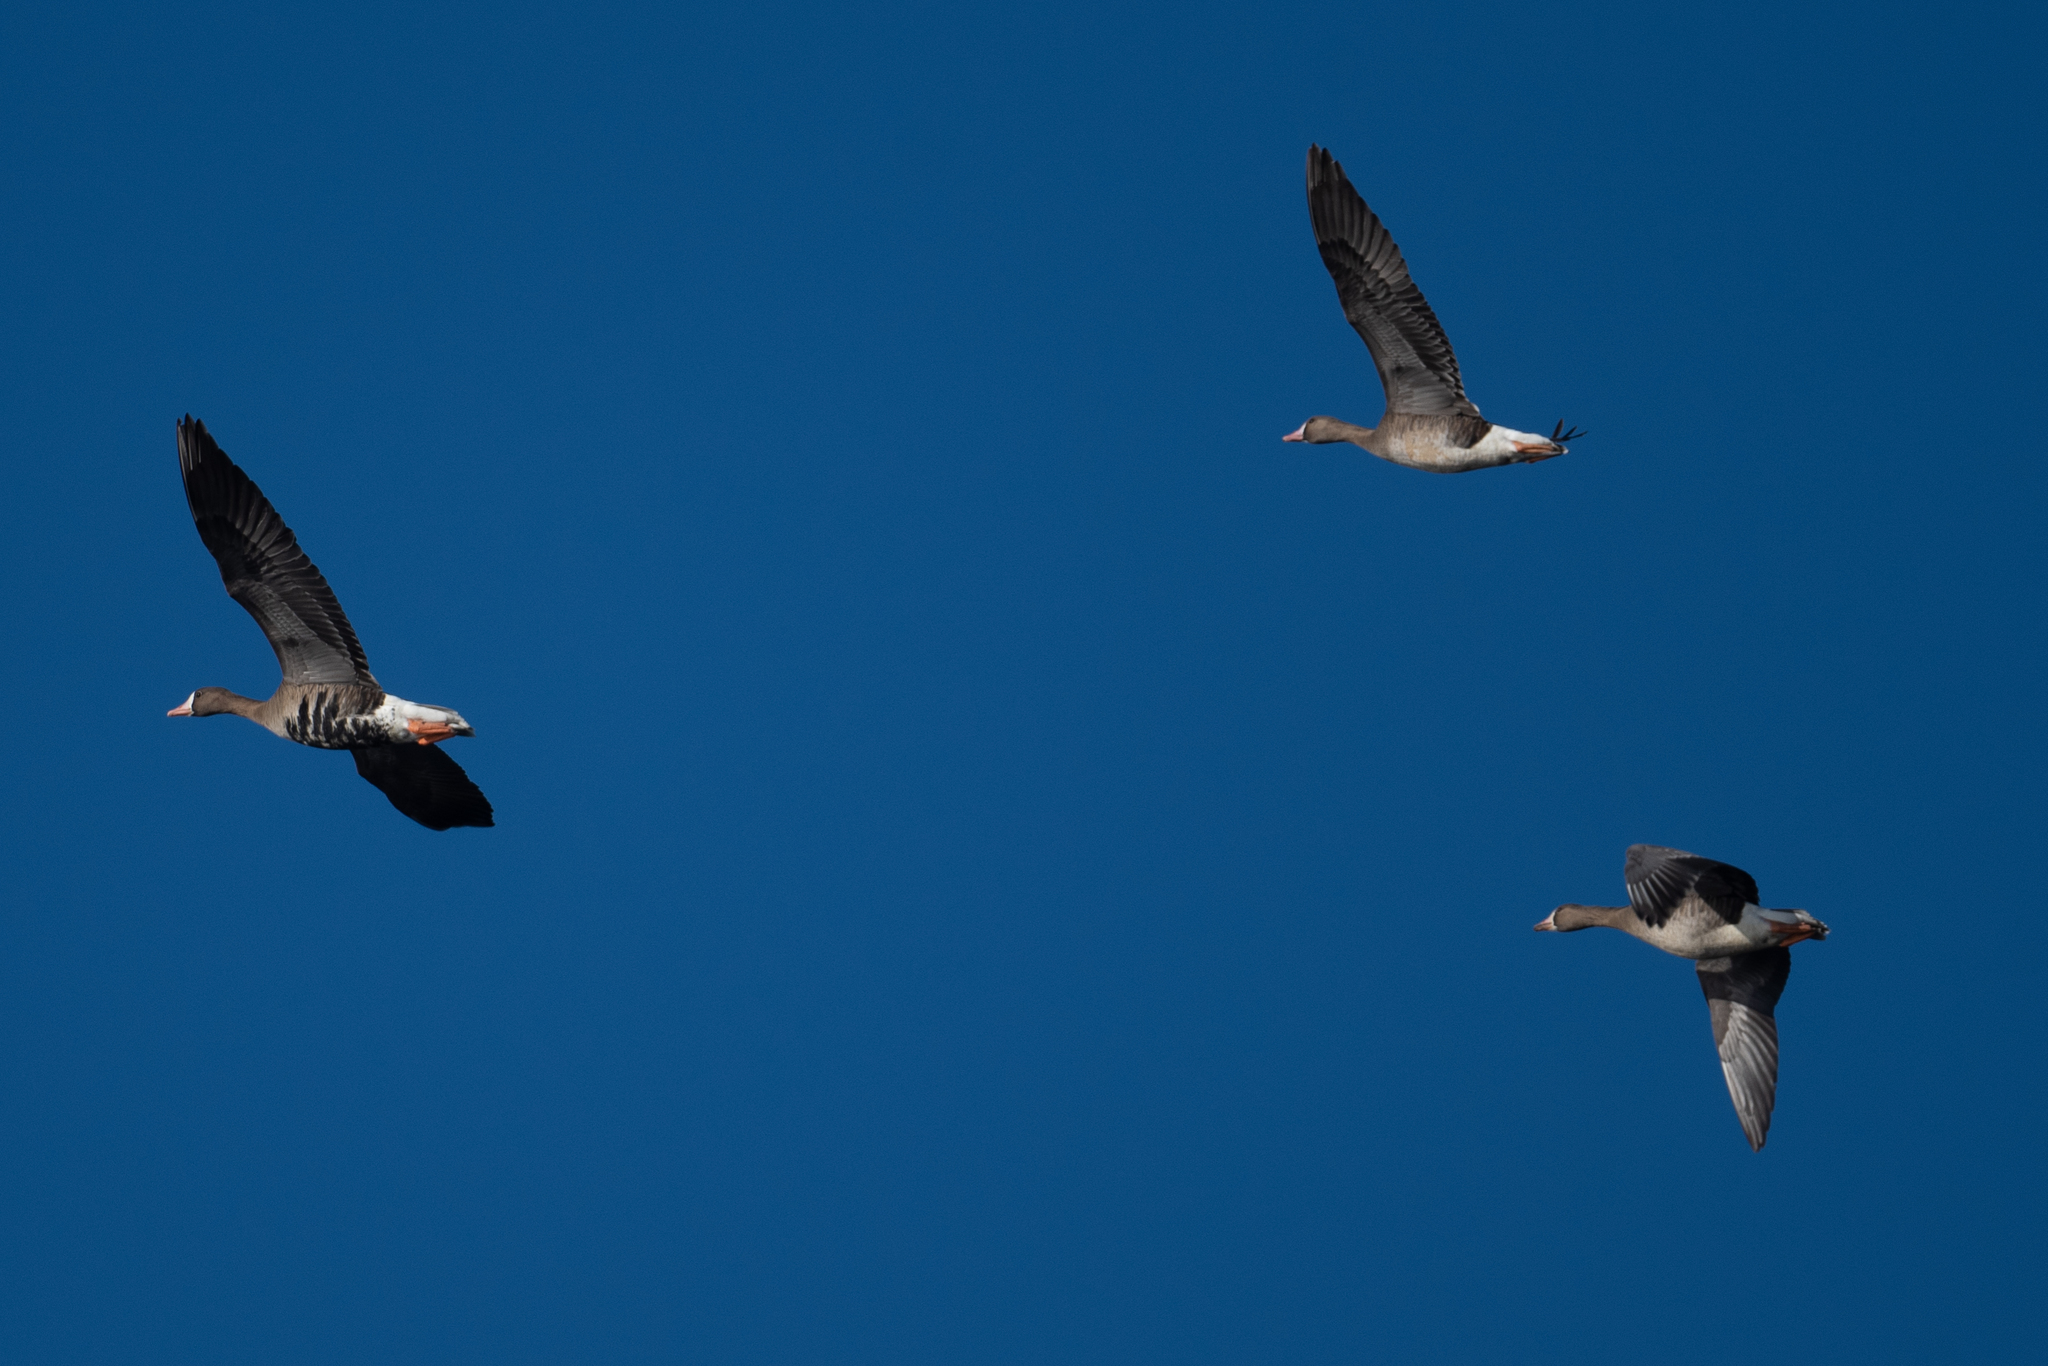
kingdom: Animalia
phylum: Chordata
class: Aves
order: Anseriformes
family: Anatidae
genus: Anser
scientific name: Anser albifrons
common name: Greater white-fronted goose
